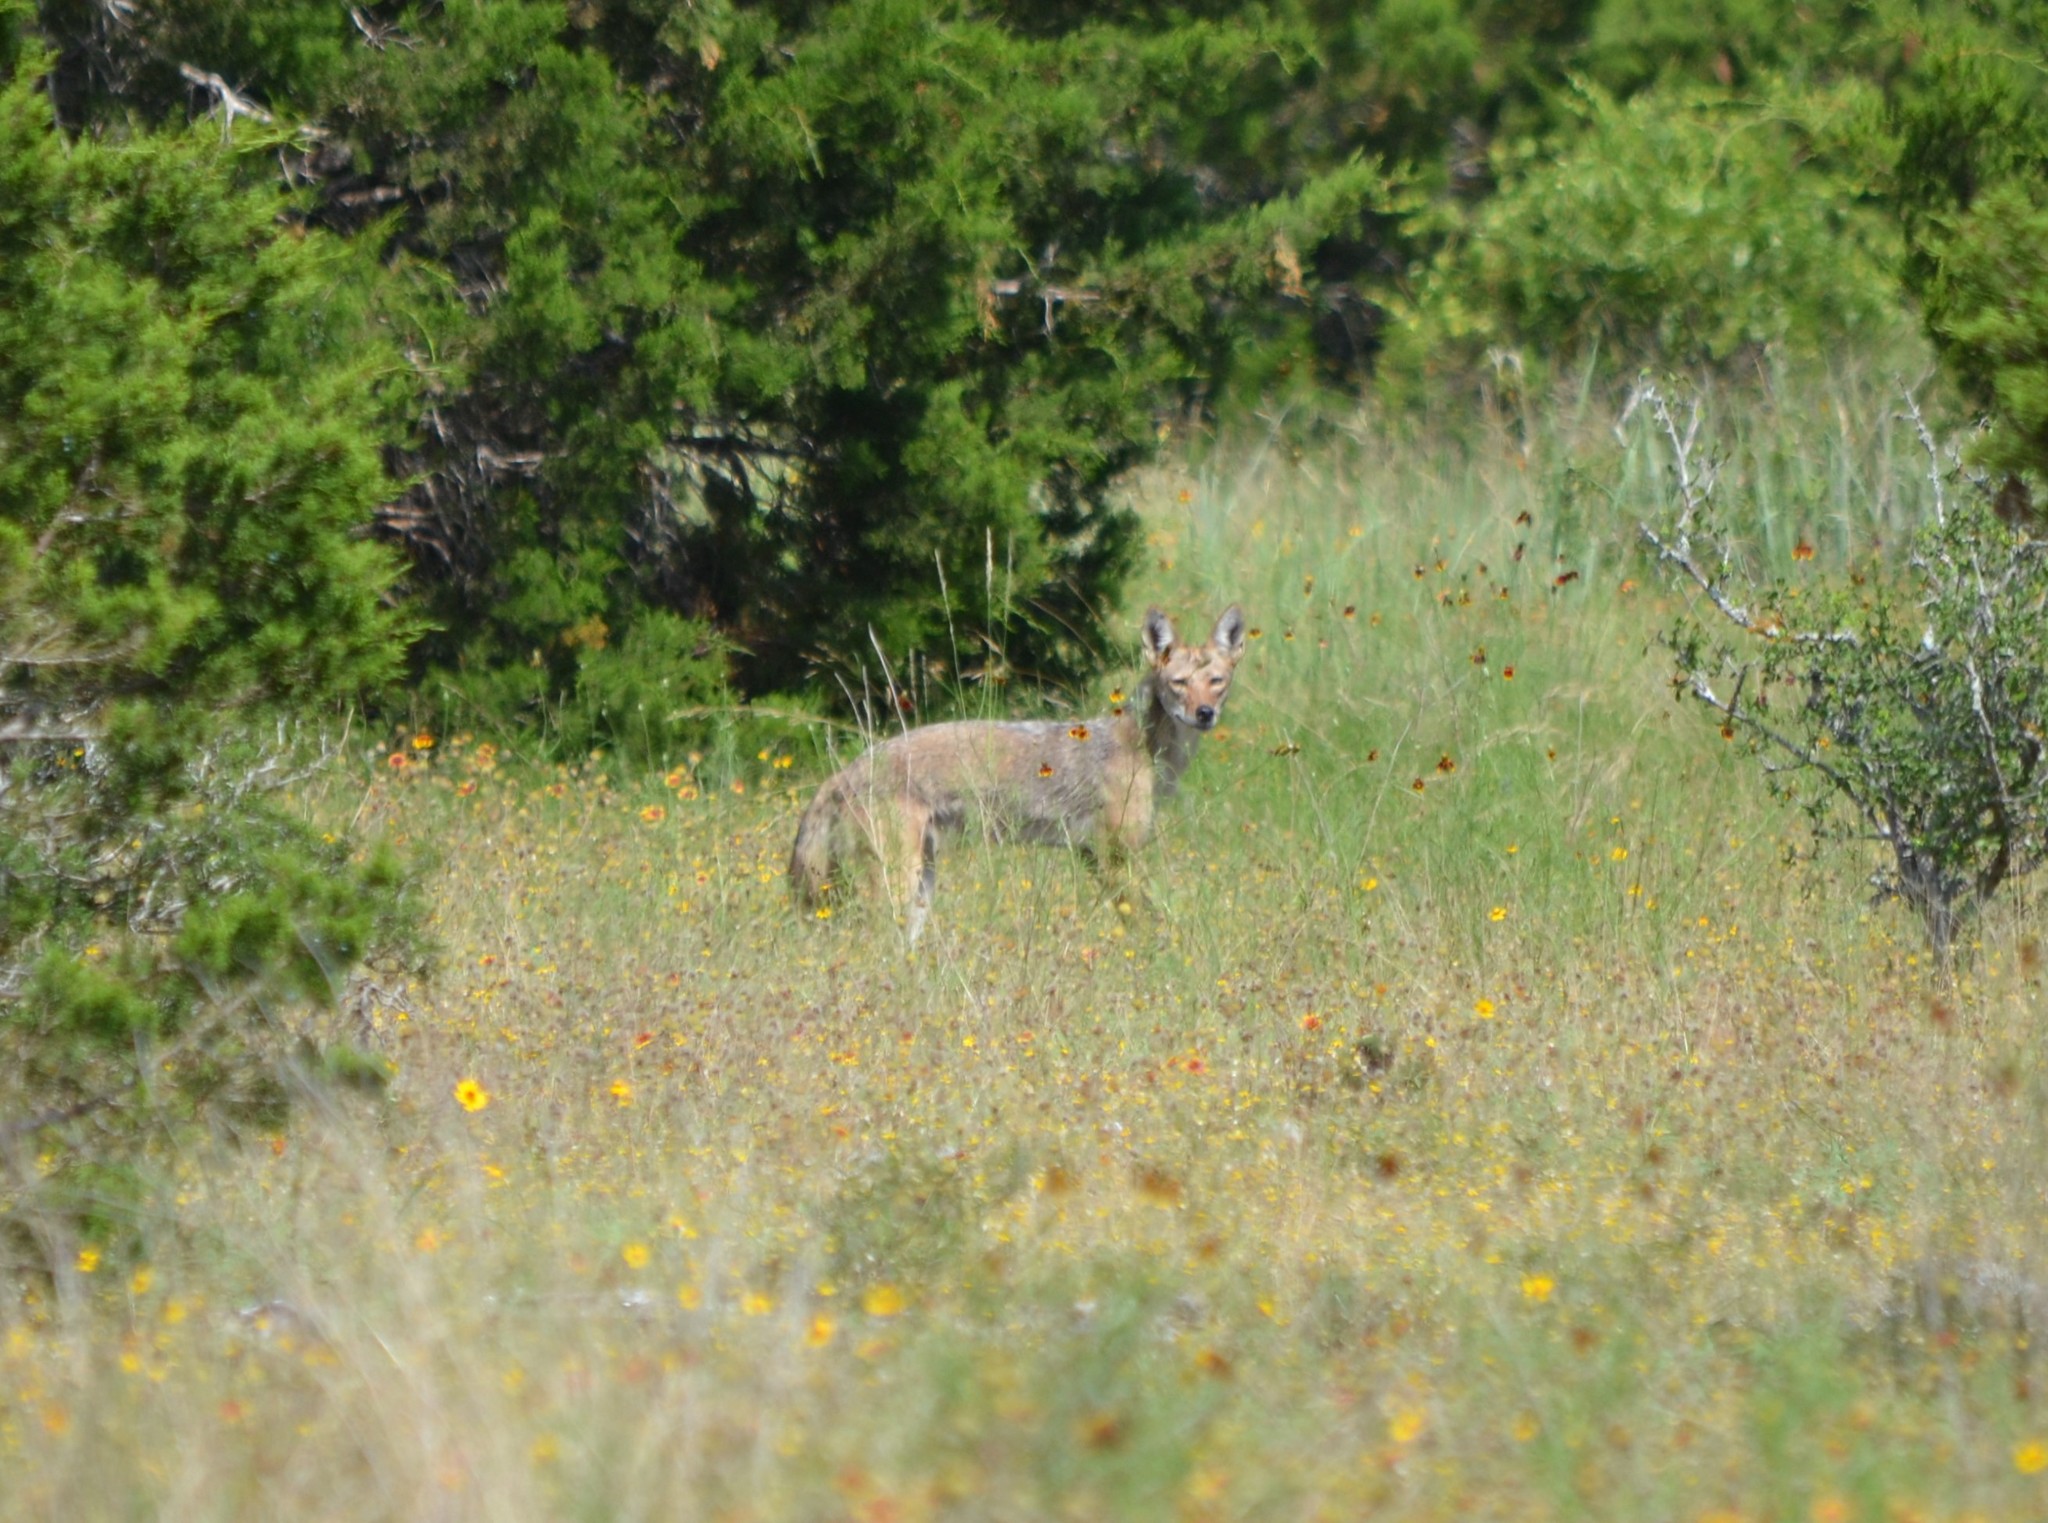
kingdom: Animalia
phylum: Chordata
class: Mammalia
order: Carnivora
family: Canidae
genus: Canis
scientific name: Canis latrans
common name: Coyote
